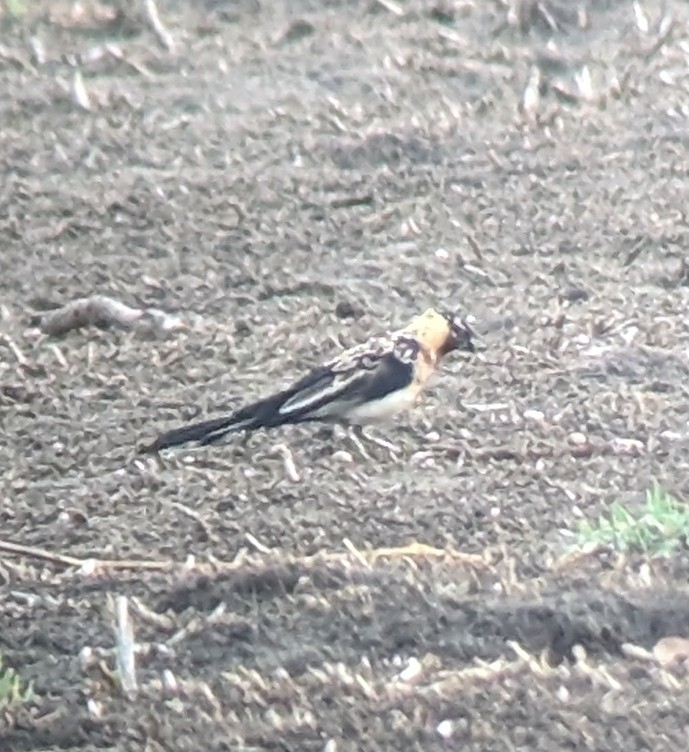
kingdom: Animalia
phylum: Chordata
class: Aves
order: Passeriformes
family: Viduidae
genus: Vidua
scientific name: Vidua paradisaea
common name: Long-tailed paradise whydah
